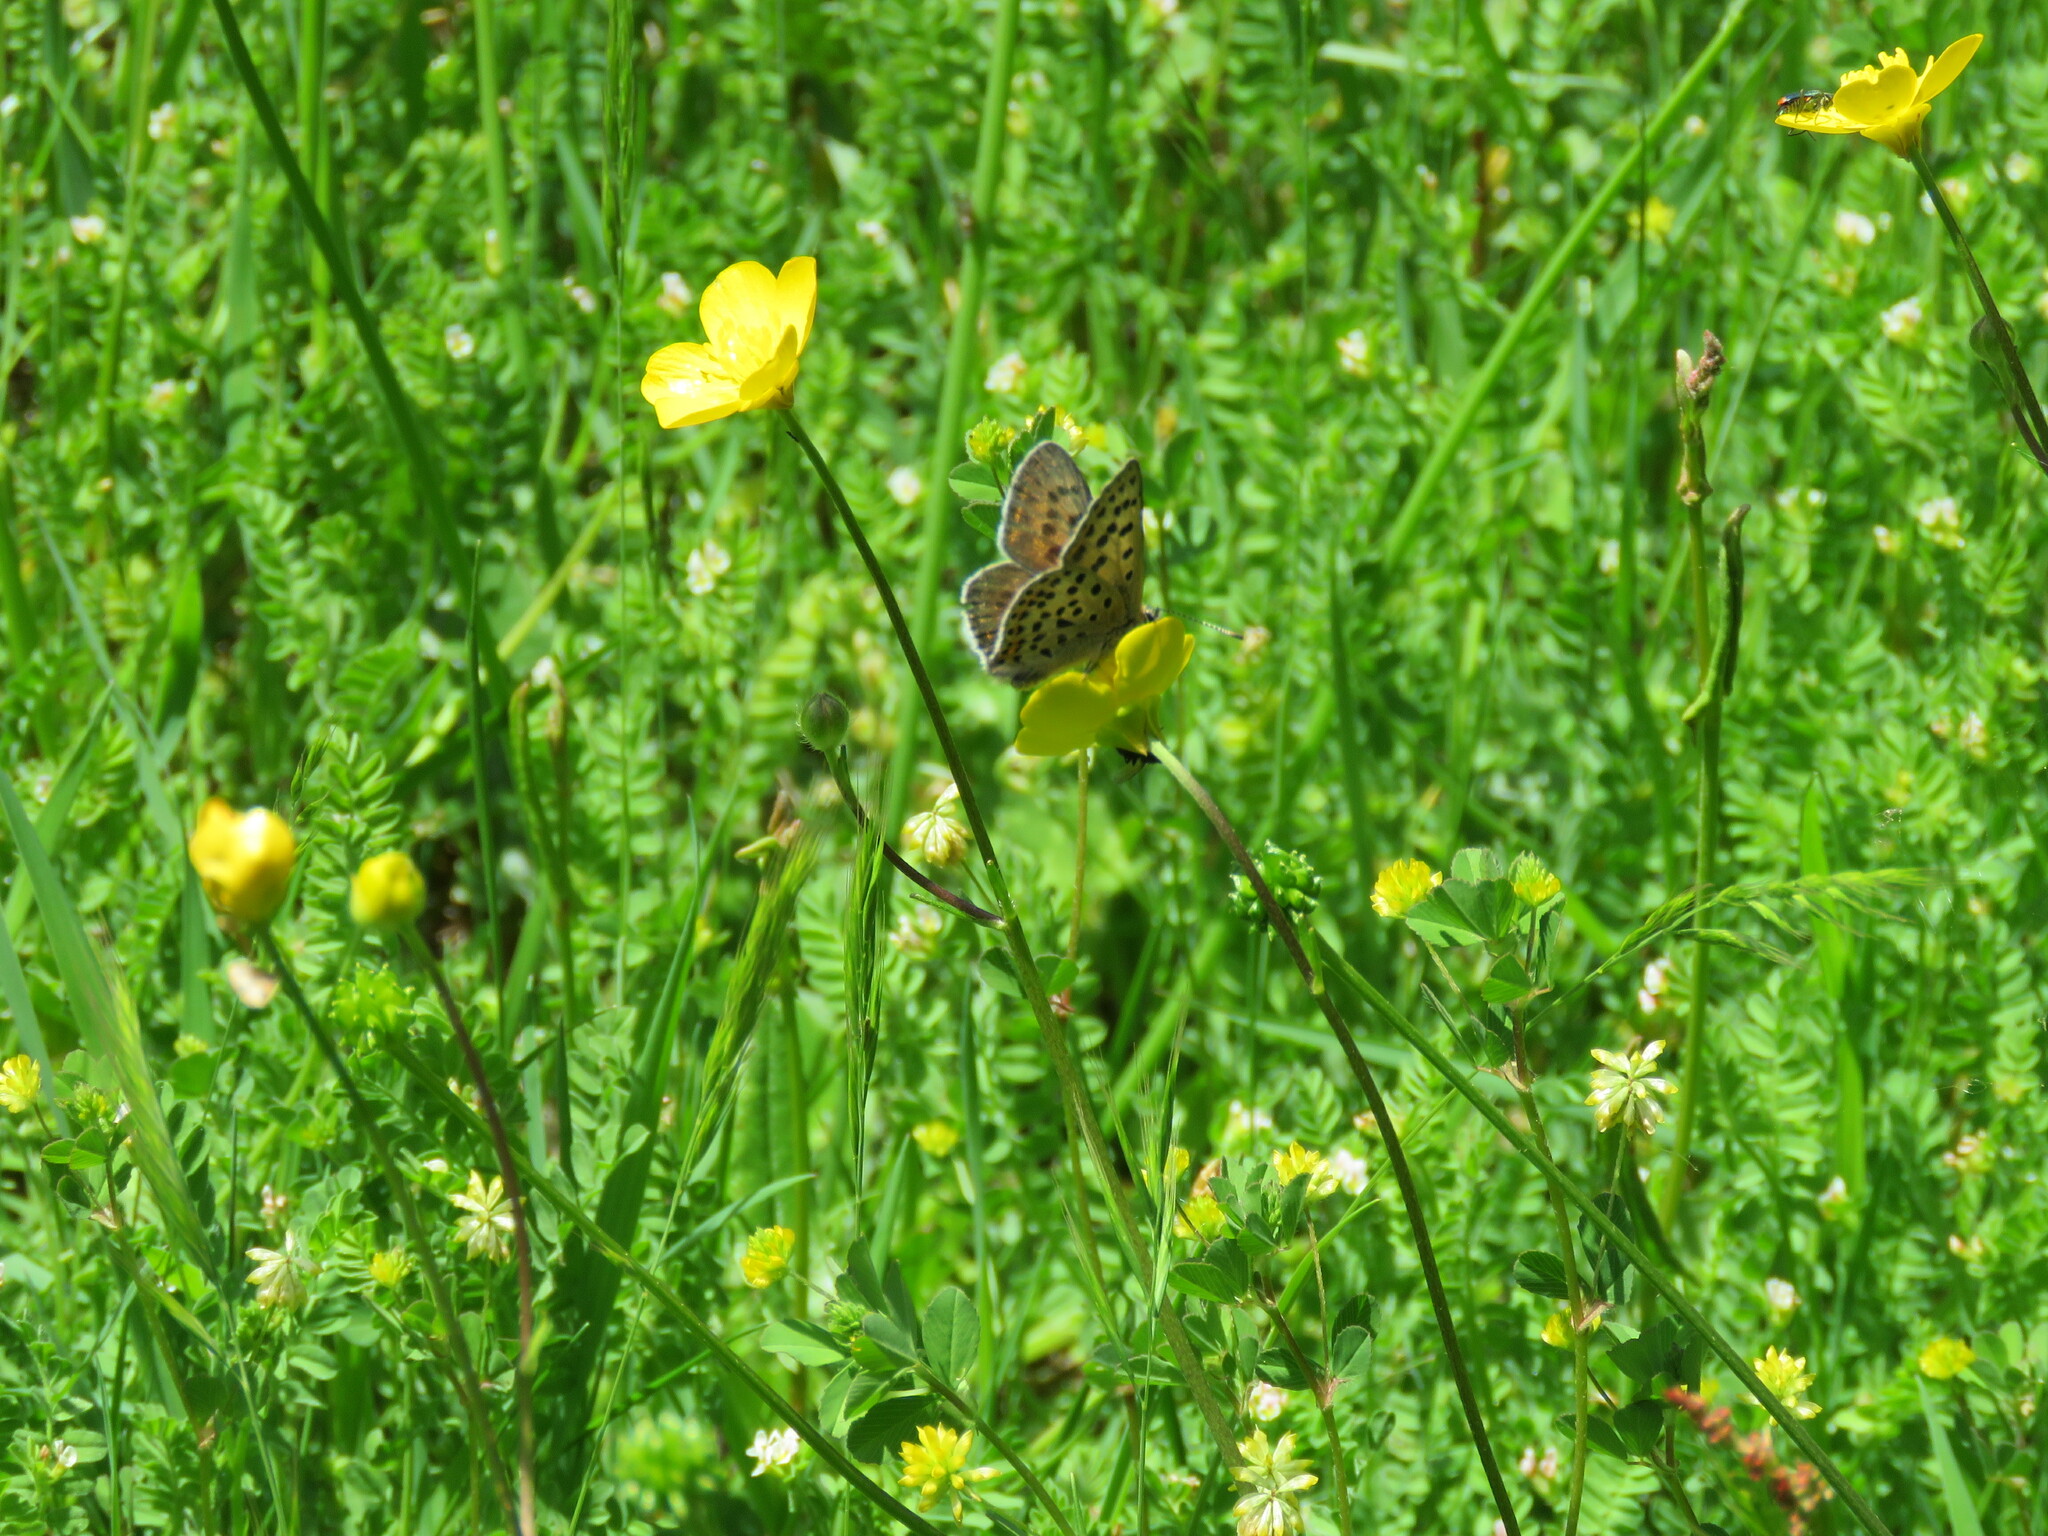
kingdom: Animalia
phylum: Arthropoda
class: Insecta
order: Lepidoptera
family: Lycaenidae
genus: Loweia
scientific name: Loweia tityrus
